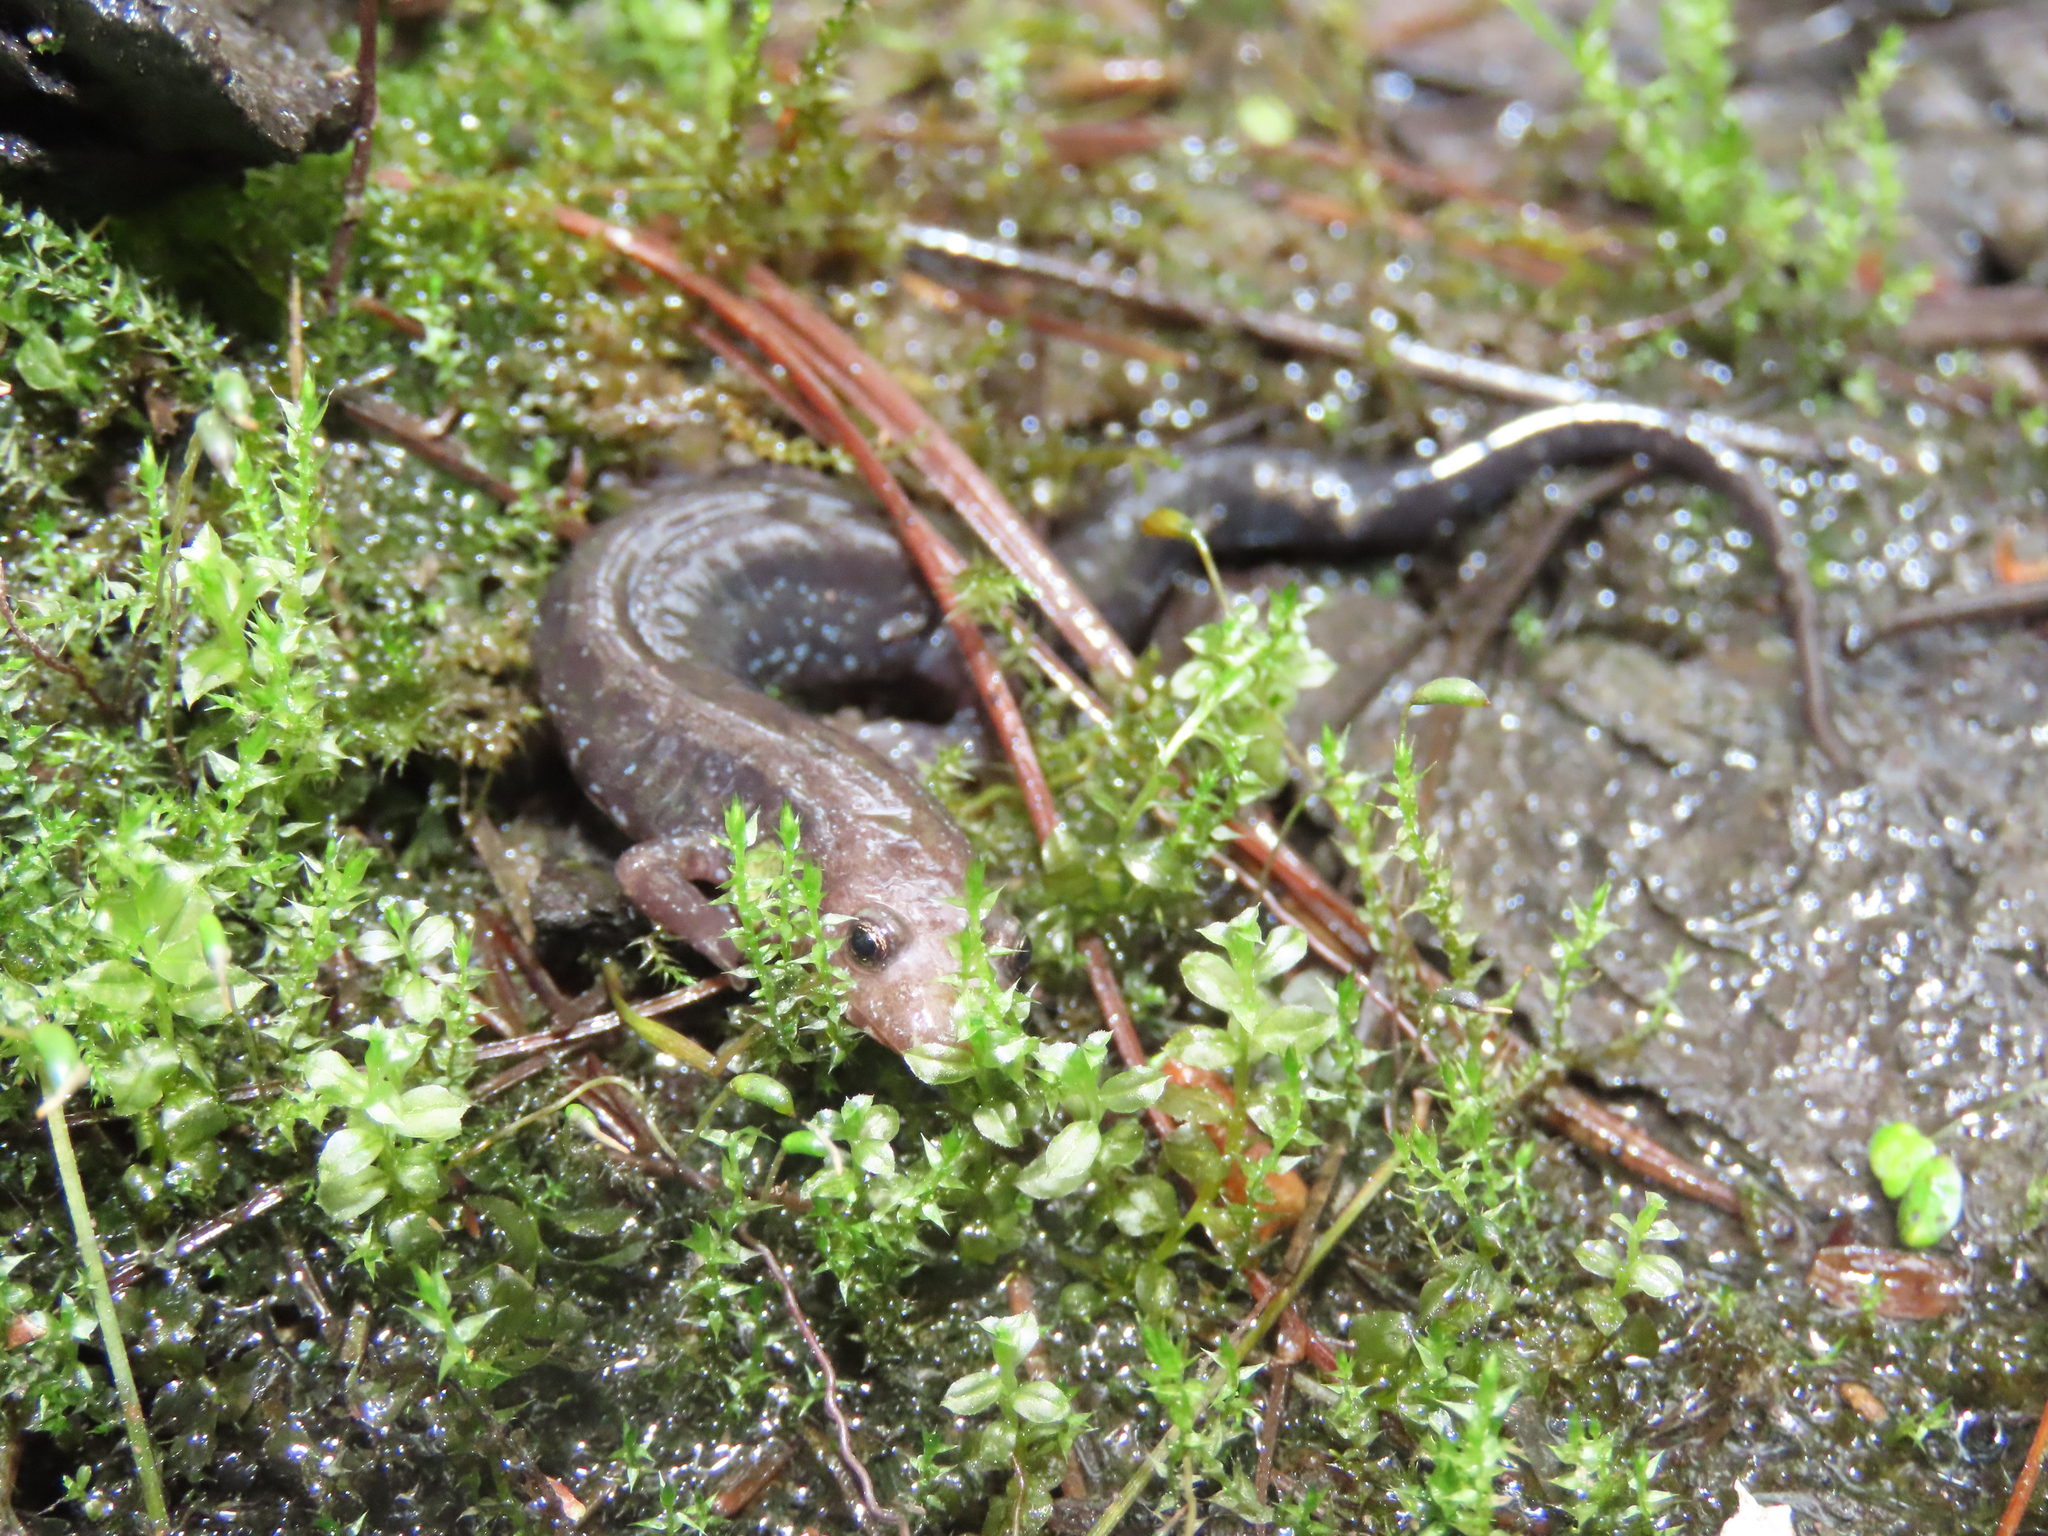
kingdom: Animalia
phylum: Chordata
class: Amphibia
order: Caudata
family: Plethodontidae
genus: Desmognathus
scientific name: Desmognathus ochrophaeus
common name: Allegheny mountain dusky salamander
